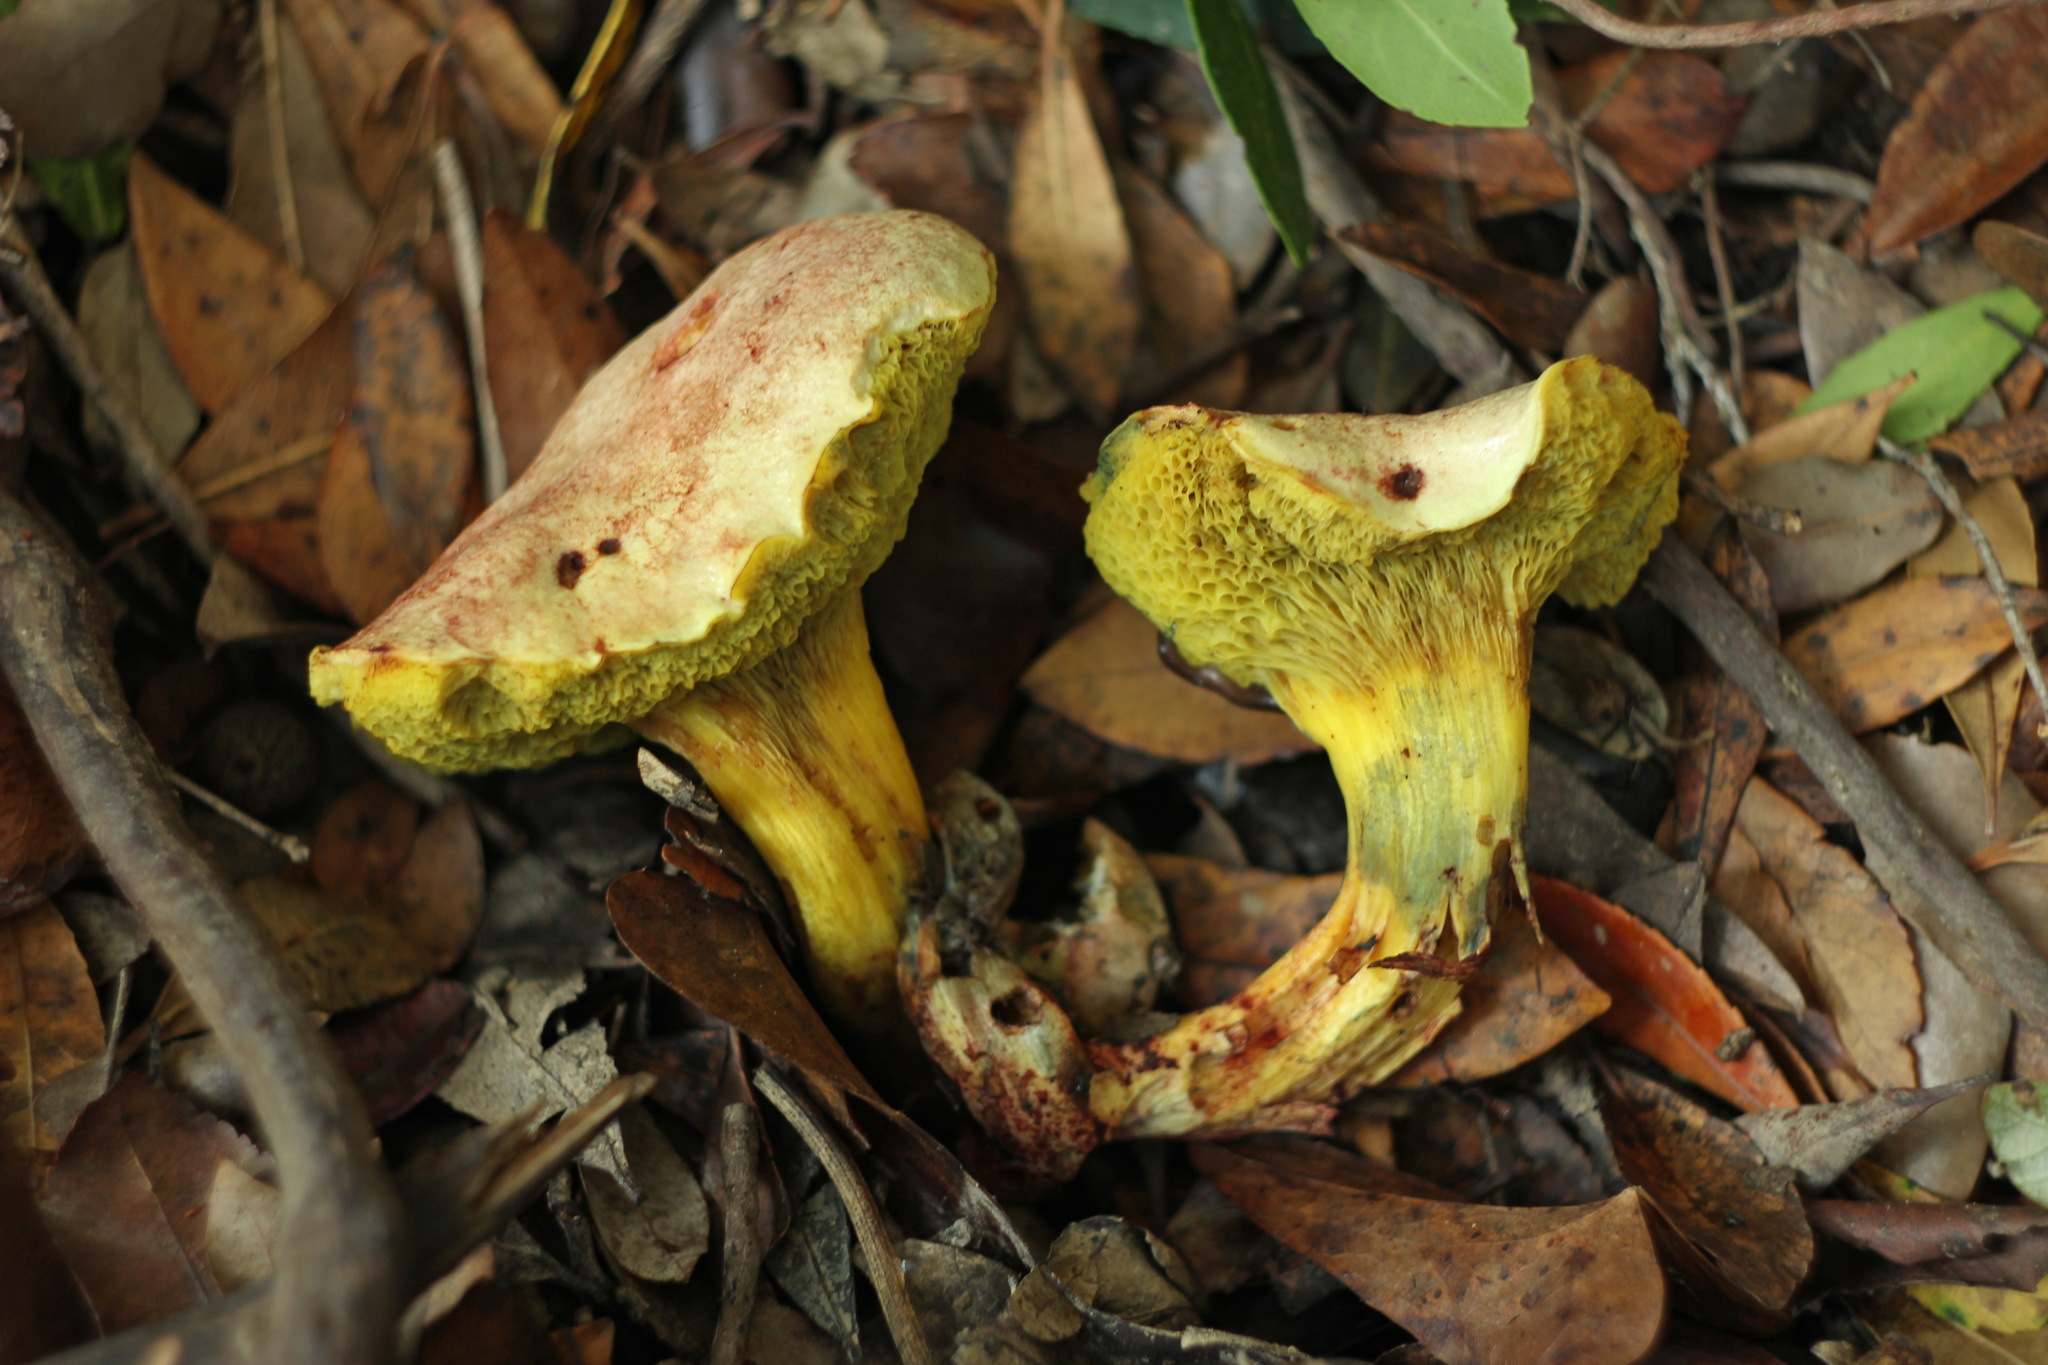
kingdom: Fungi
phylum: Basidiomycota
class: Agaricomycetes
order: Boletales
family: Boletaceae
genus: Pulchroboletus
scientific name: Pulchroboletus roseoalbidus
